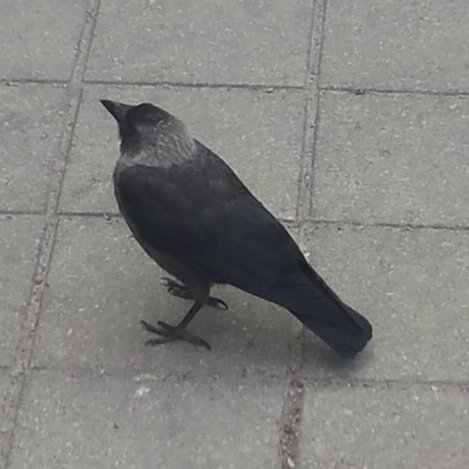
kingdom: Animalia
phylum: Chordata
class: Aves
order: Passeriformes
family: Corvidae
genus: Coloeus
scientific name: Coloeus monedula
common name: Western jackdaw
